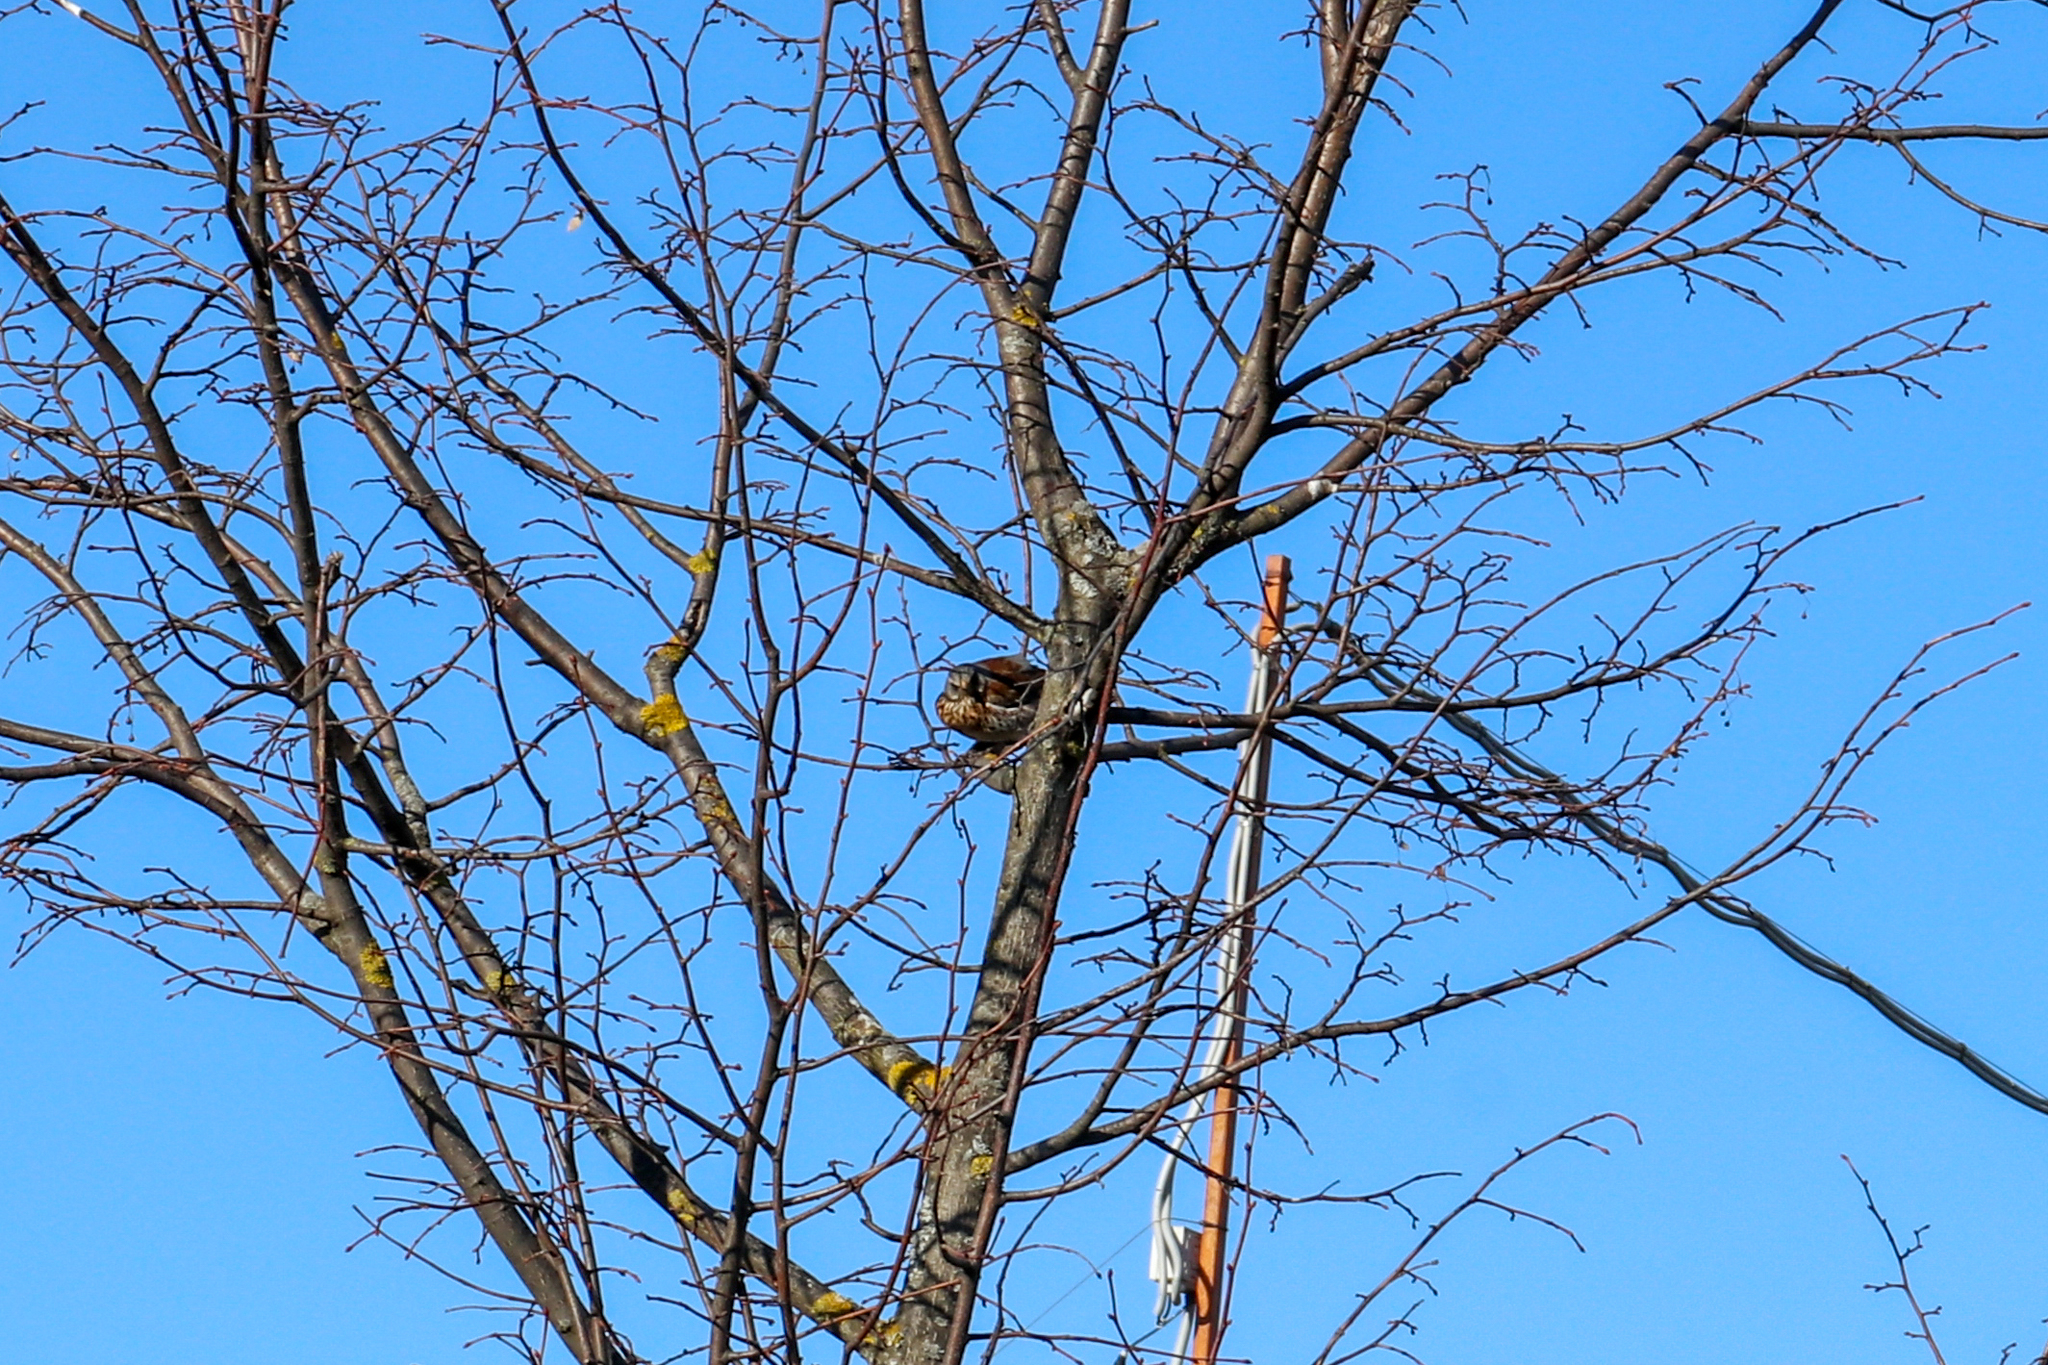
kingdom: Animalia
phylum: Chordata
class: Aves
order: Passeriformes
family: Turdidae
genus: Turdus
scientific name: Turdus pilaris
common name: Fieldfare
